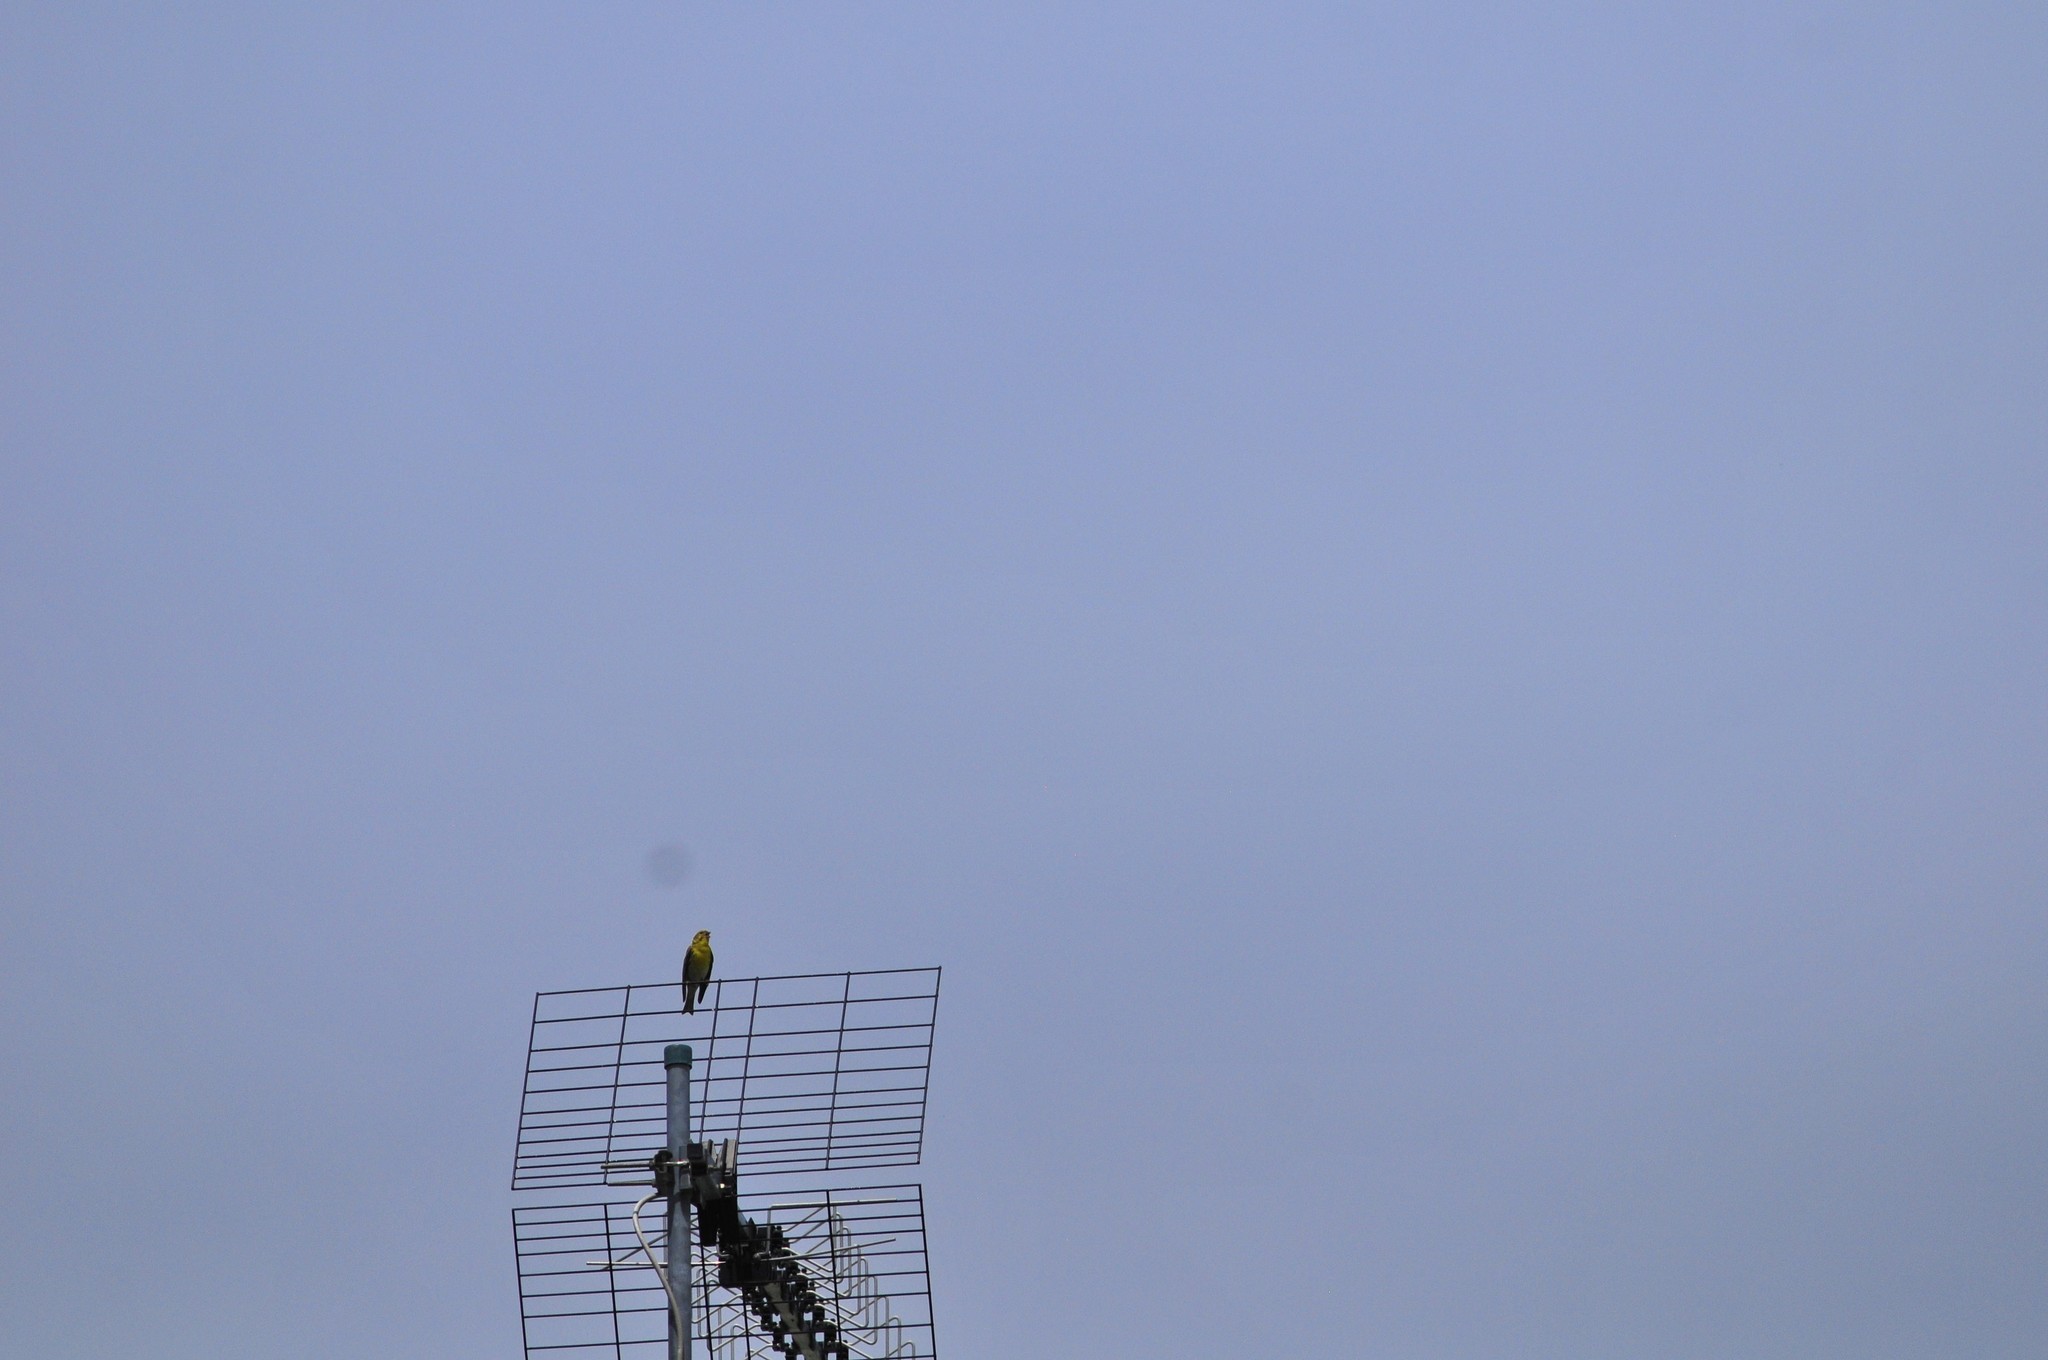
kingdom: Animalia
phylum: Chordata
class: Aves
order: Passeriformes
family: Fringillidae
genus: Serinus
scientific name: Serinus serinus
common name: European serin
